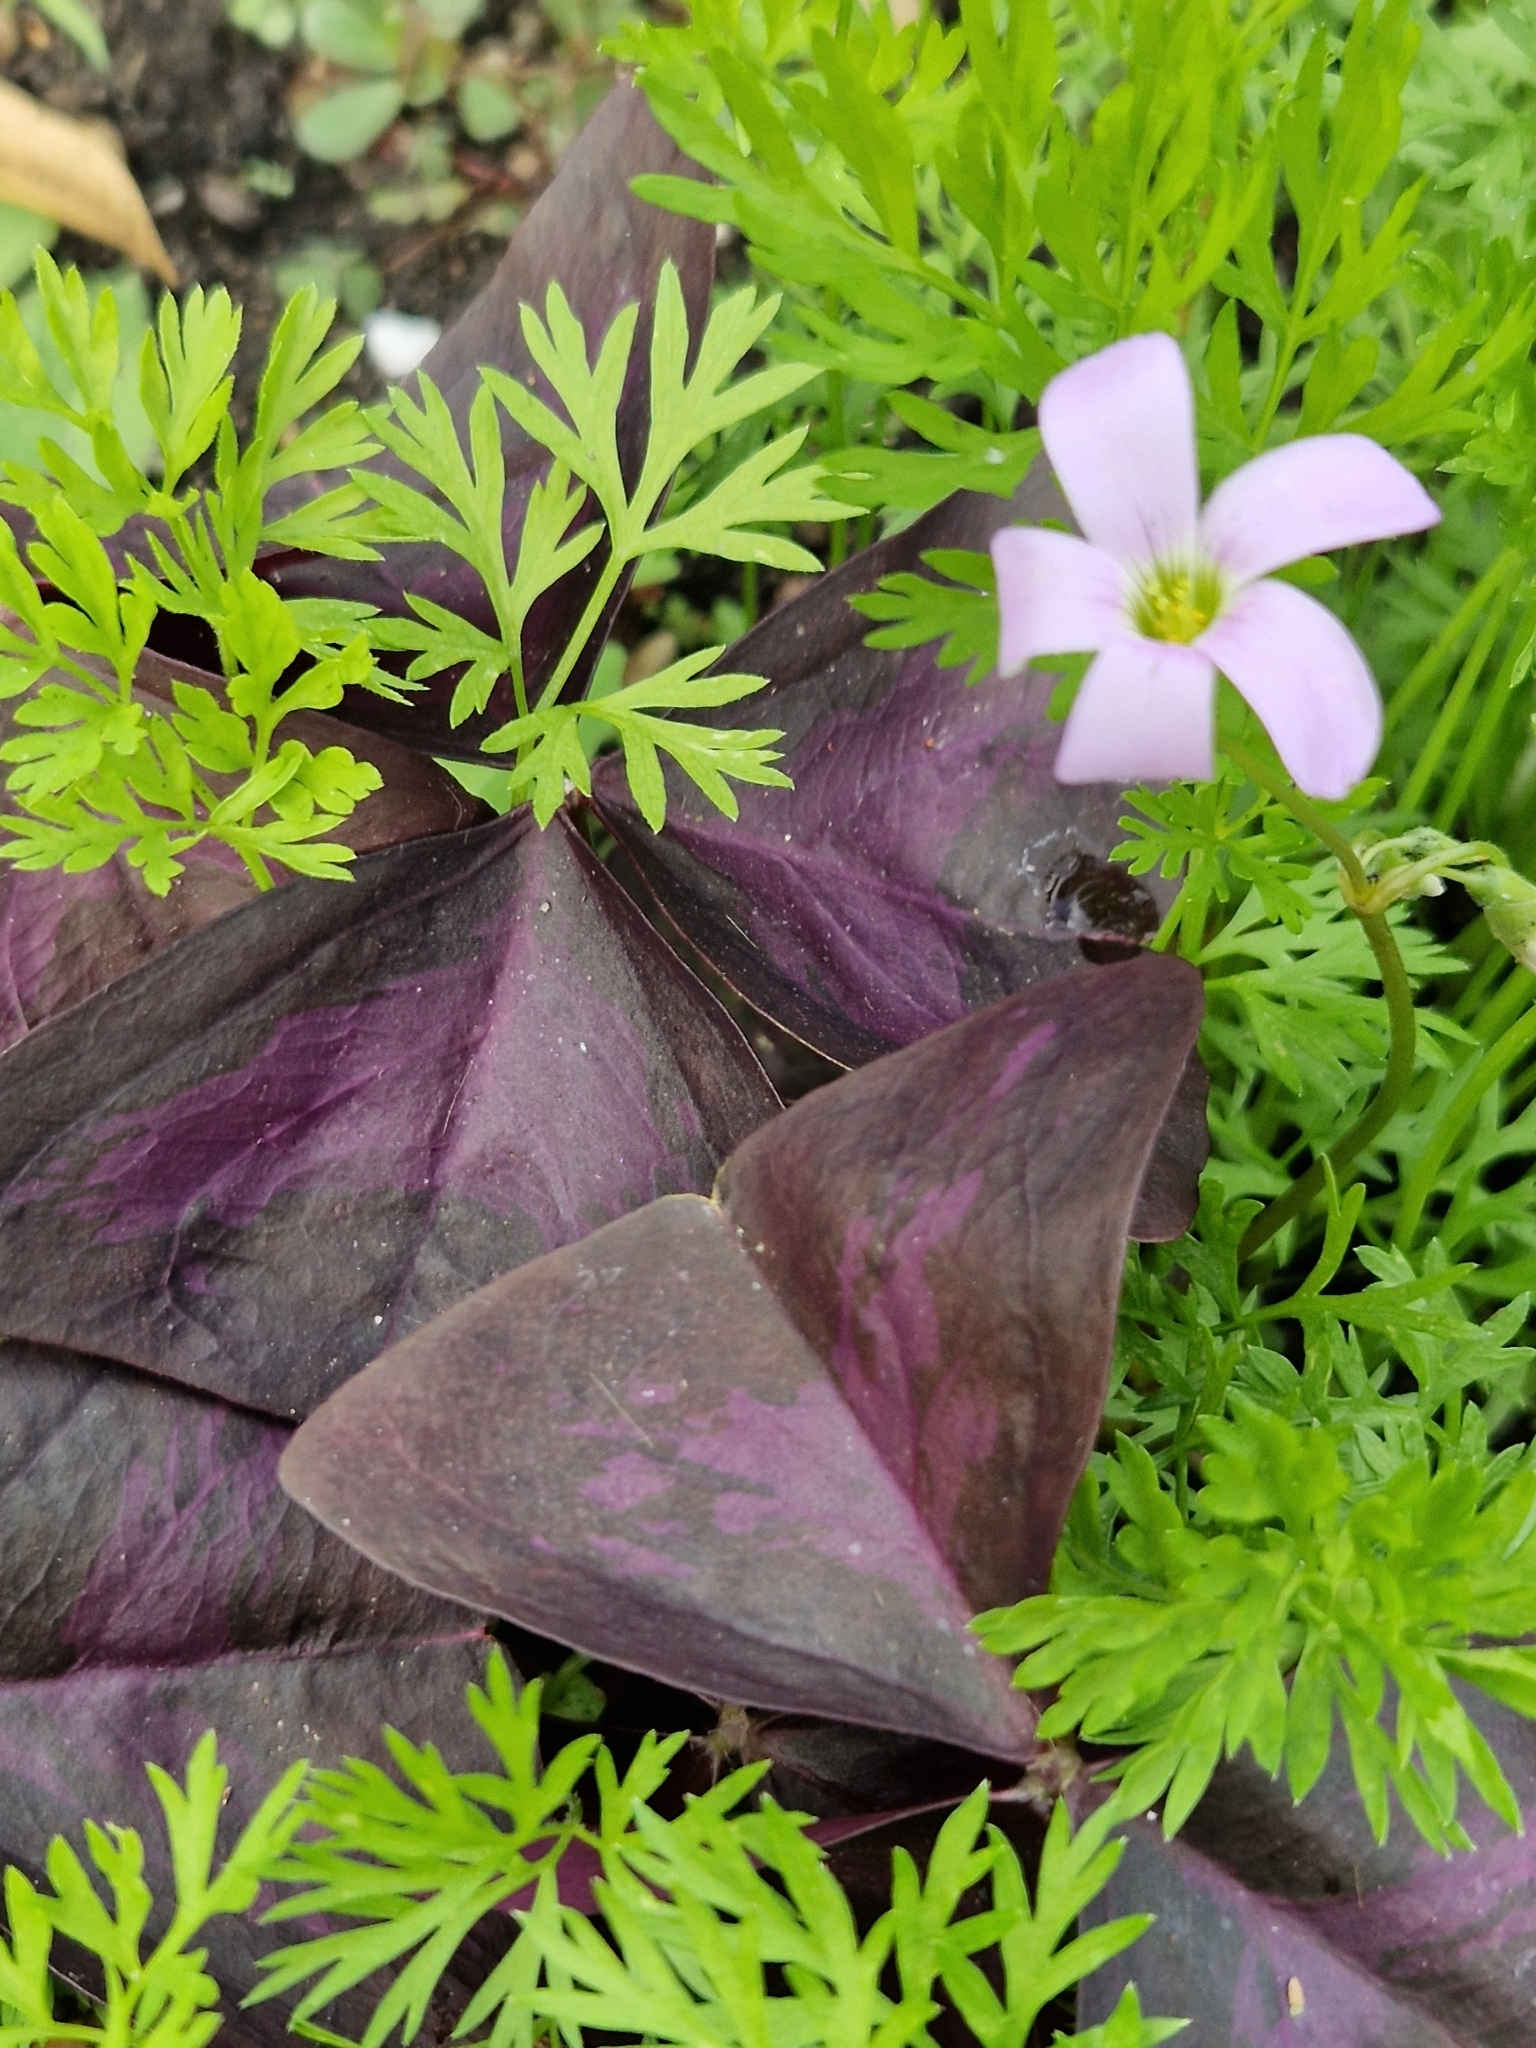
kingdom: Plantae
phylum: Tracheophyta
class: Magnoliopsida
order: Oxalidales
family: Oxalidaceae
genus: Oxalis
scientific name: Oxalis triangularis
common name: Wood sorrel
